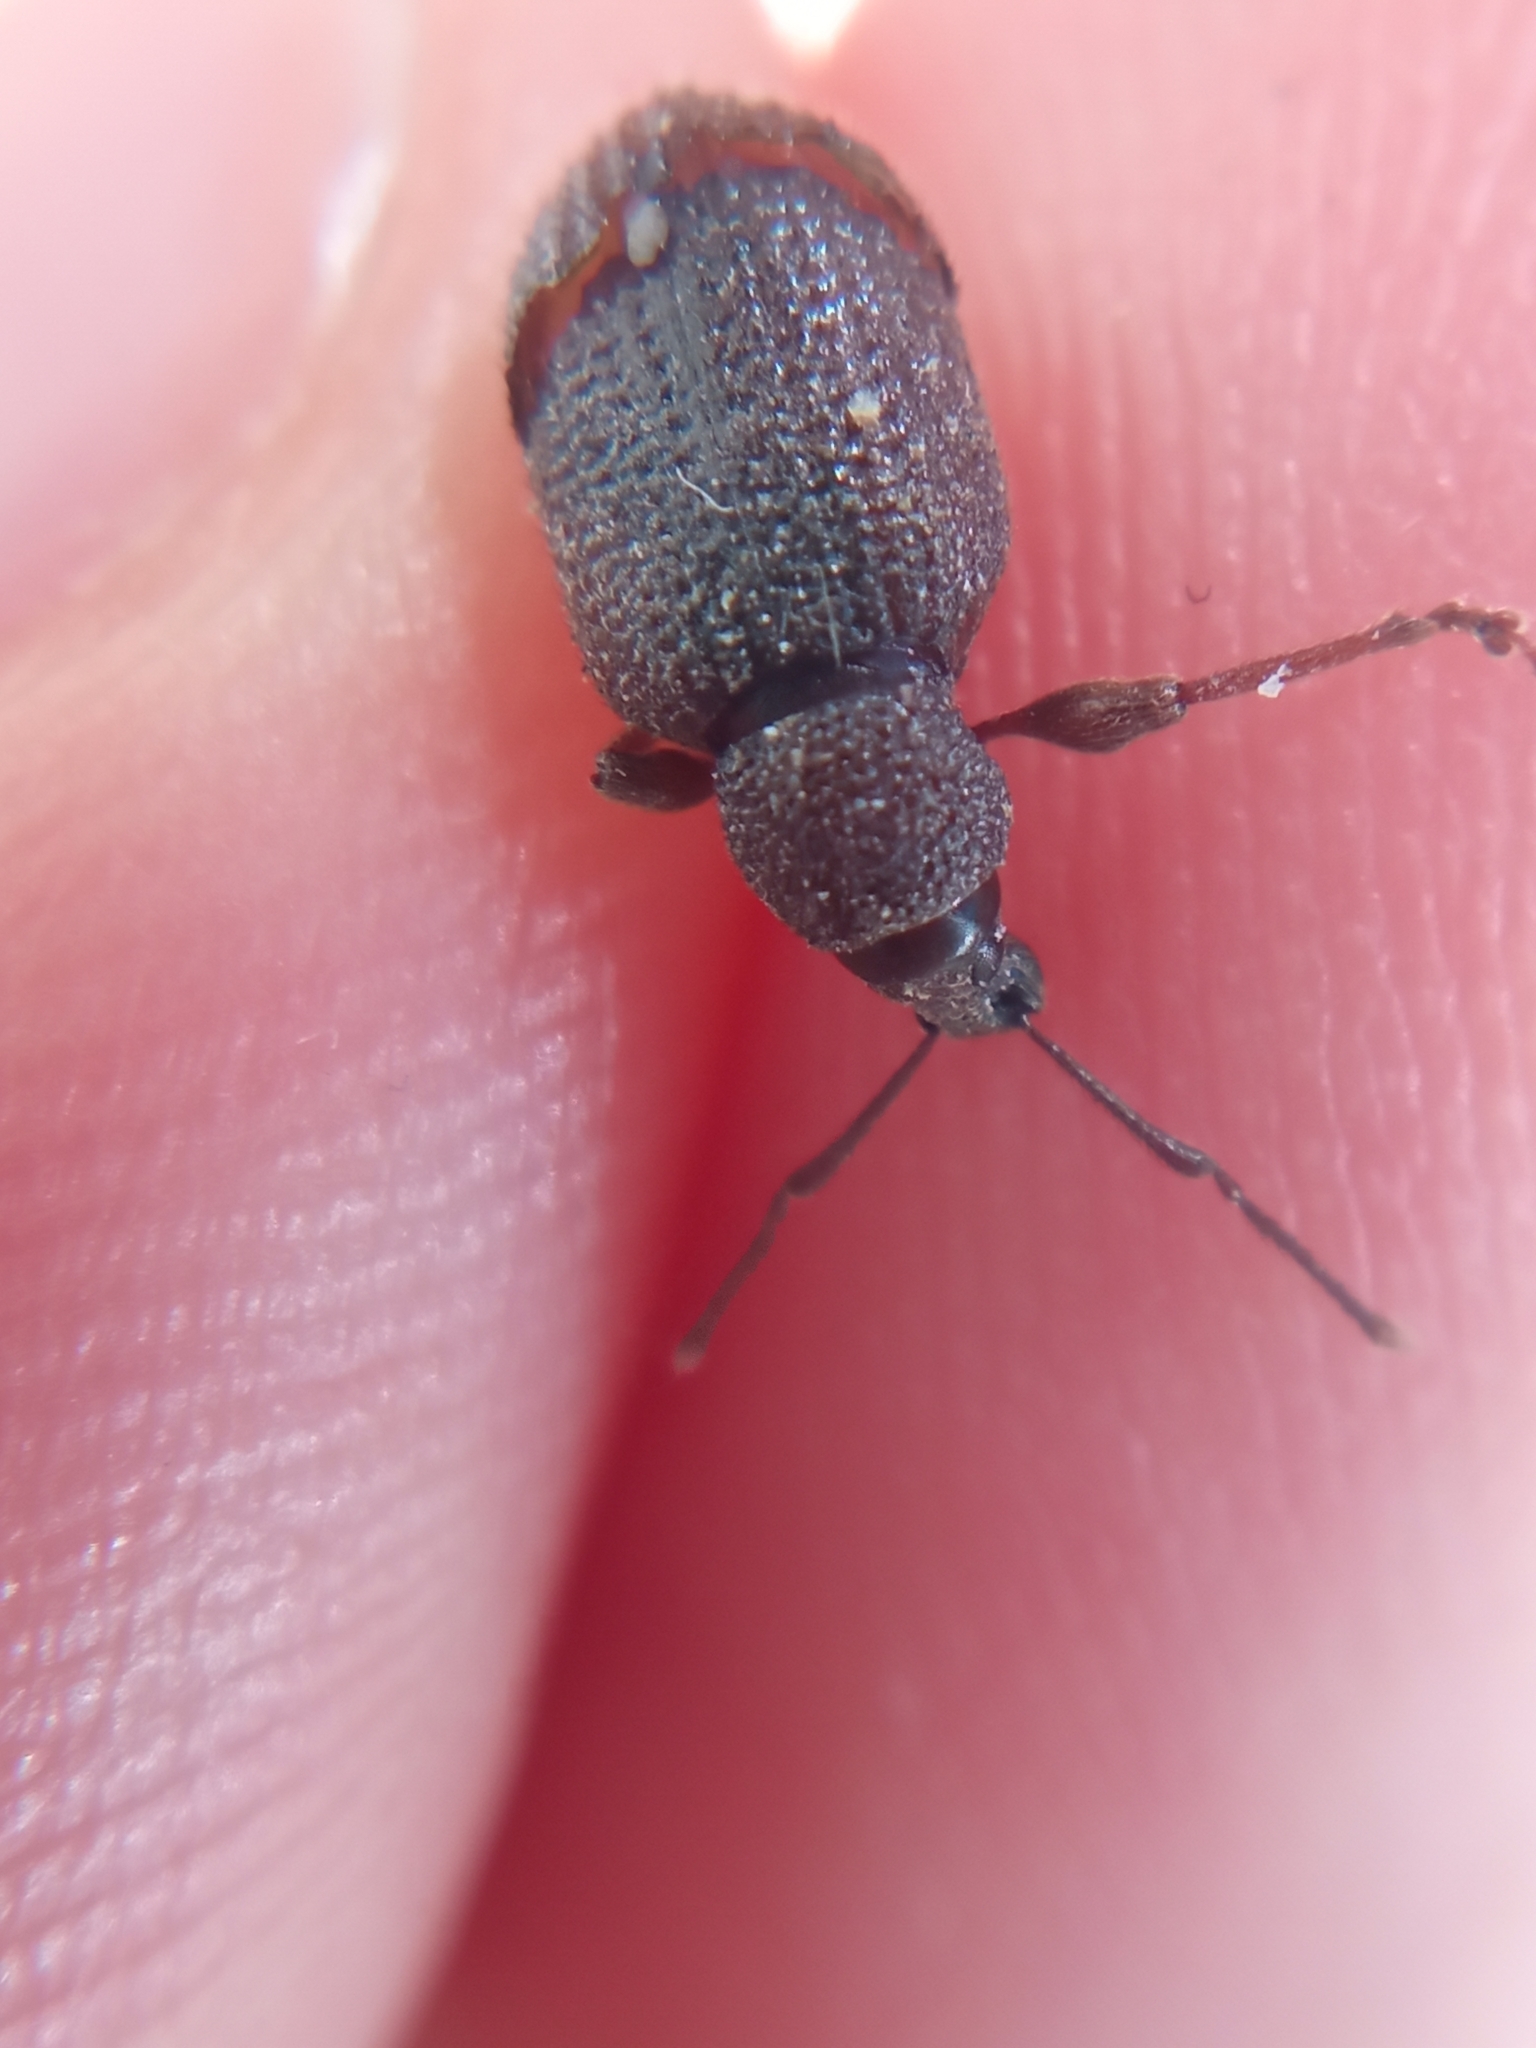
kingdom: Animalia
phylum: Arthropoda
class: Insecta
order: Coleoptera
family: Curculionidae
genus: Otiorhynchus
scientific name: Otiorhynchus rugosostriatus
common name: Weevil
